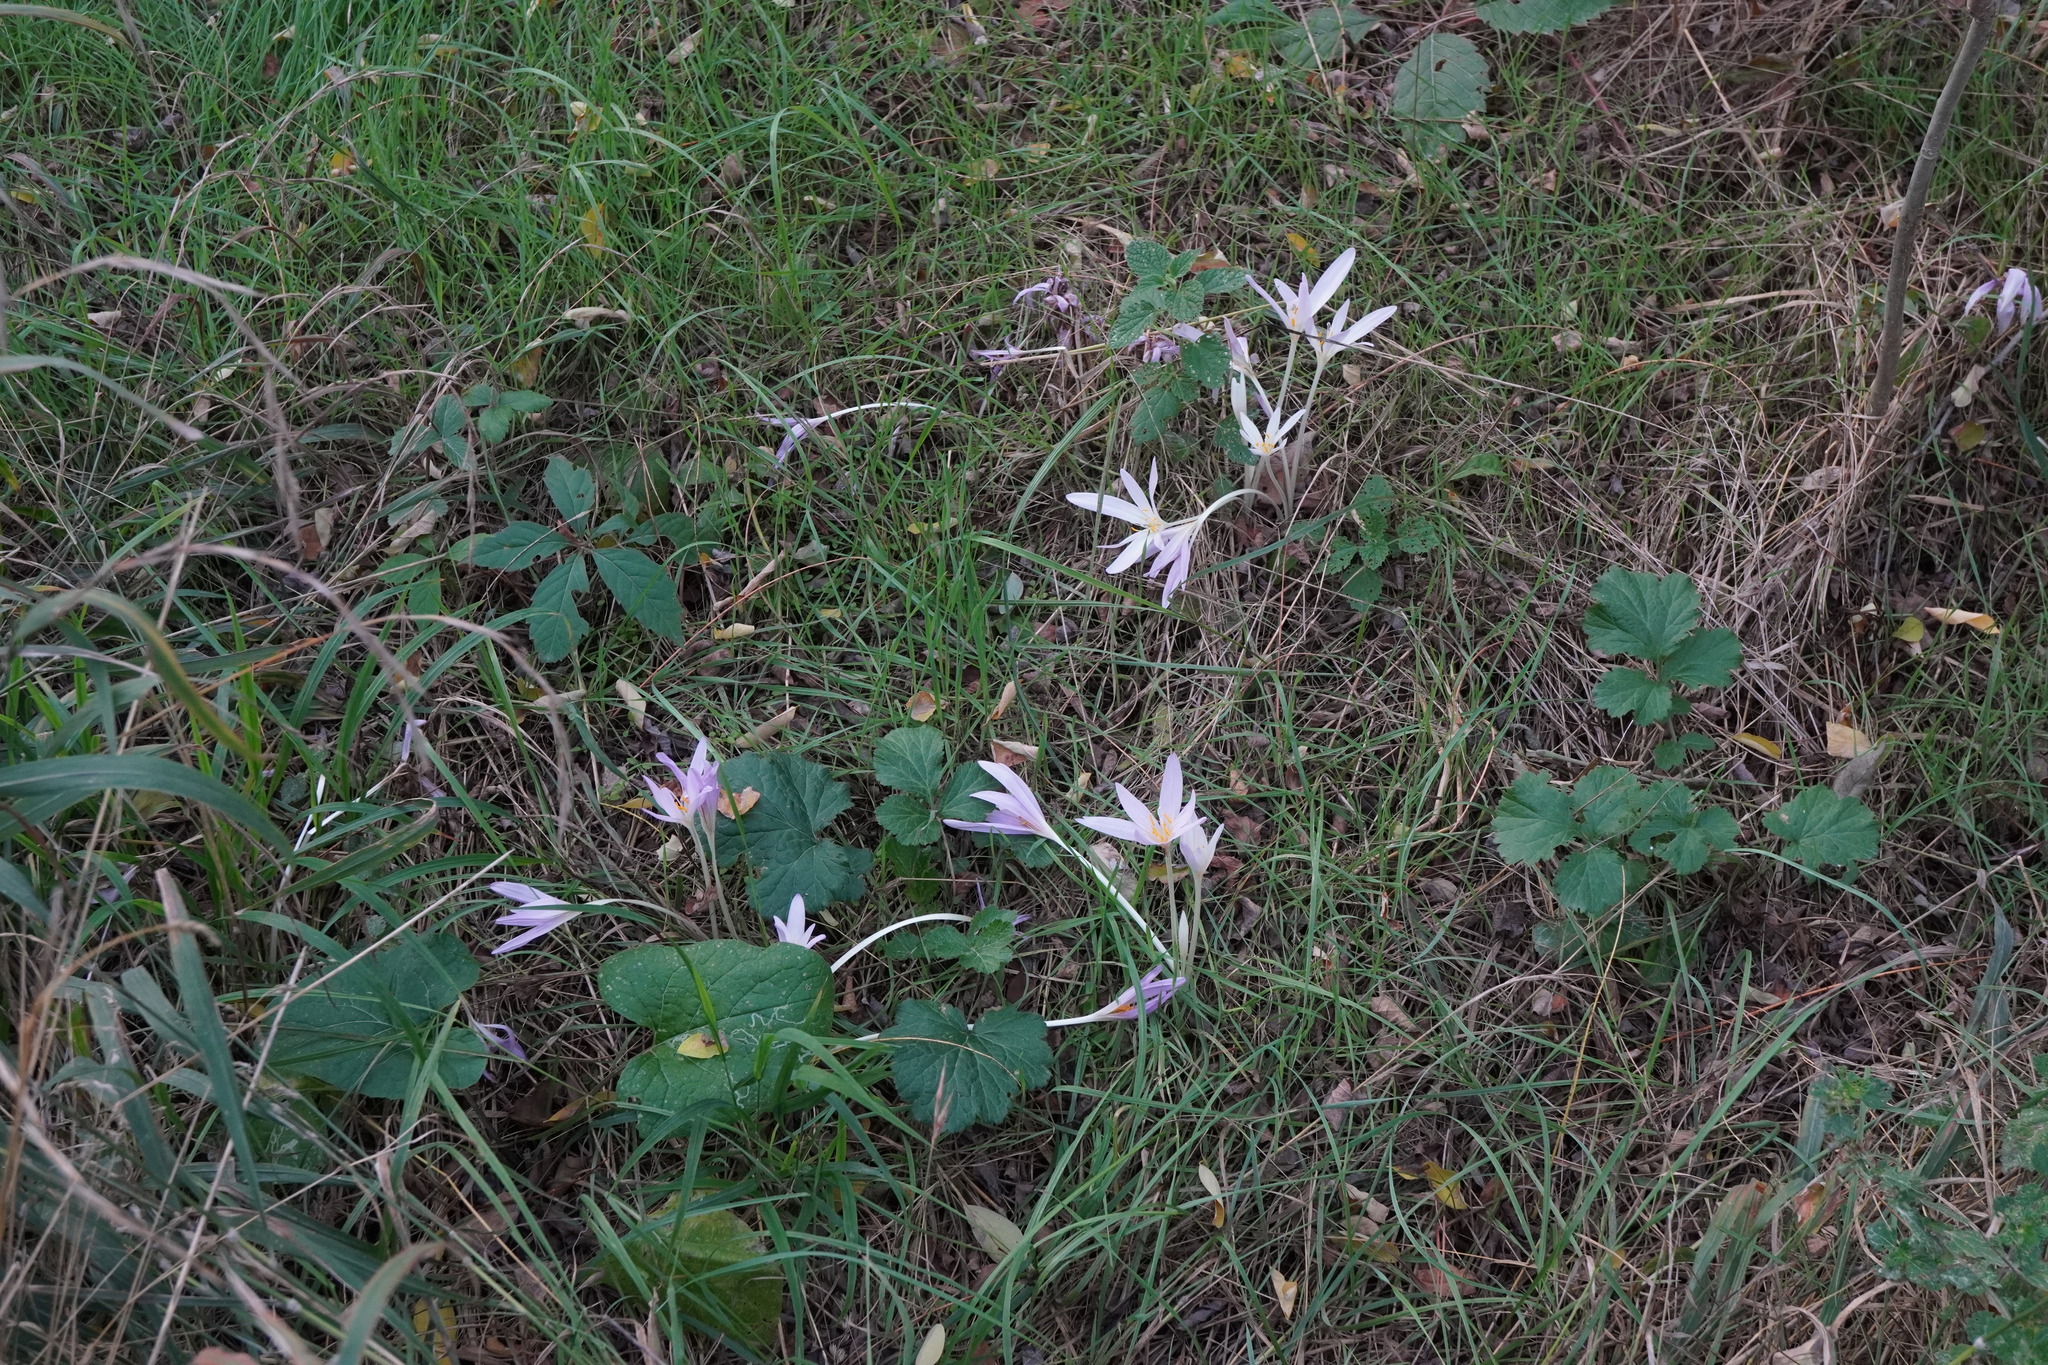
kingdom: Plantae
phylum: Tracheophyta
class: Liliopsida
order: Liliales
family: Colchicaceae
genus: Colchicum
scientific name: Colchicum autumnale
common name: Autumn crocus
